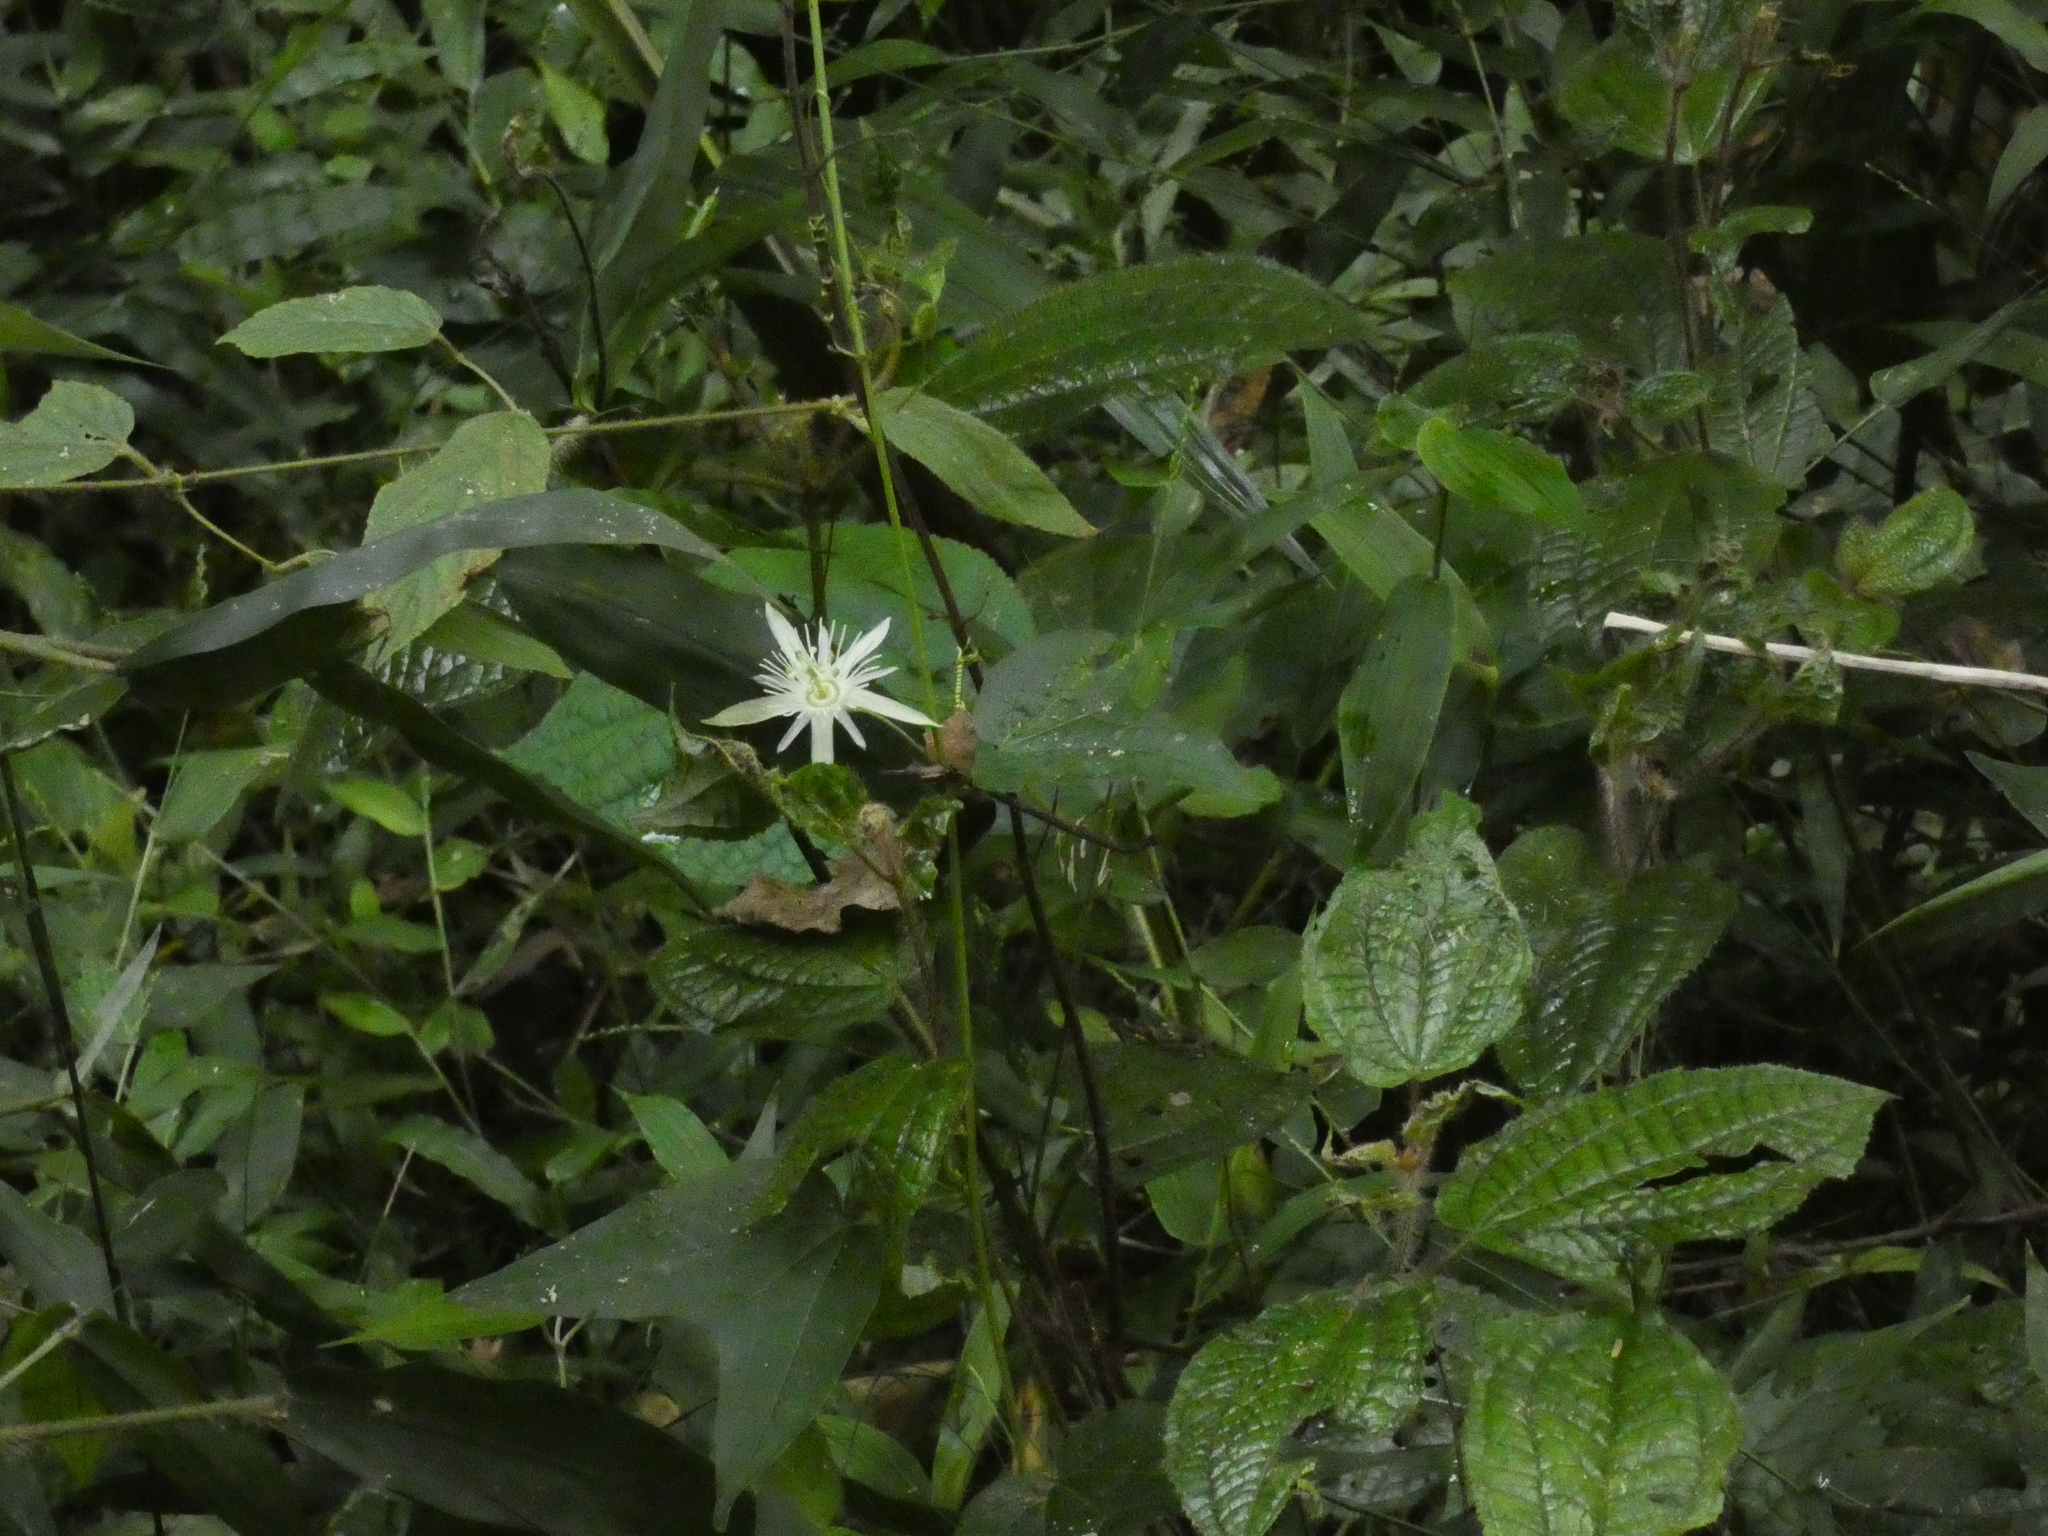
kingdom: Plantae
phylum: Tracheophyta
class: Magnoliopsida
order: Malpighiales
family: Passifloraceae
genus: Passiflora
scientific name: Passiflora capsularis
